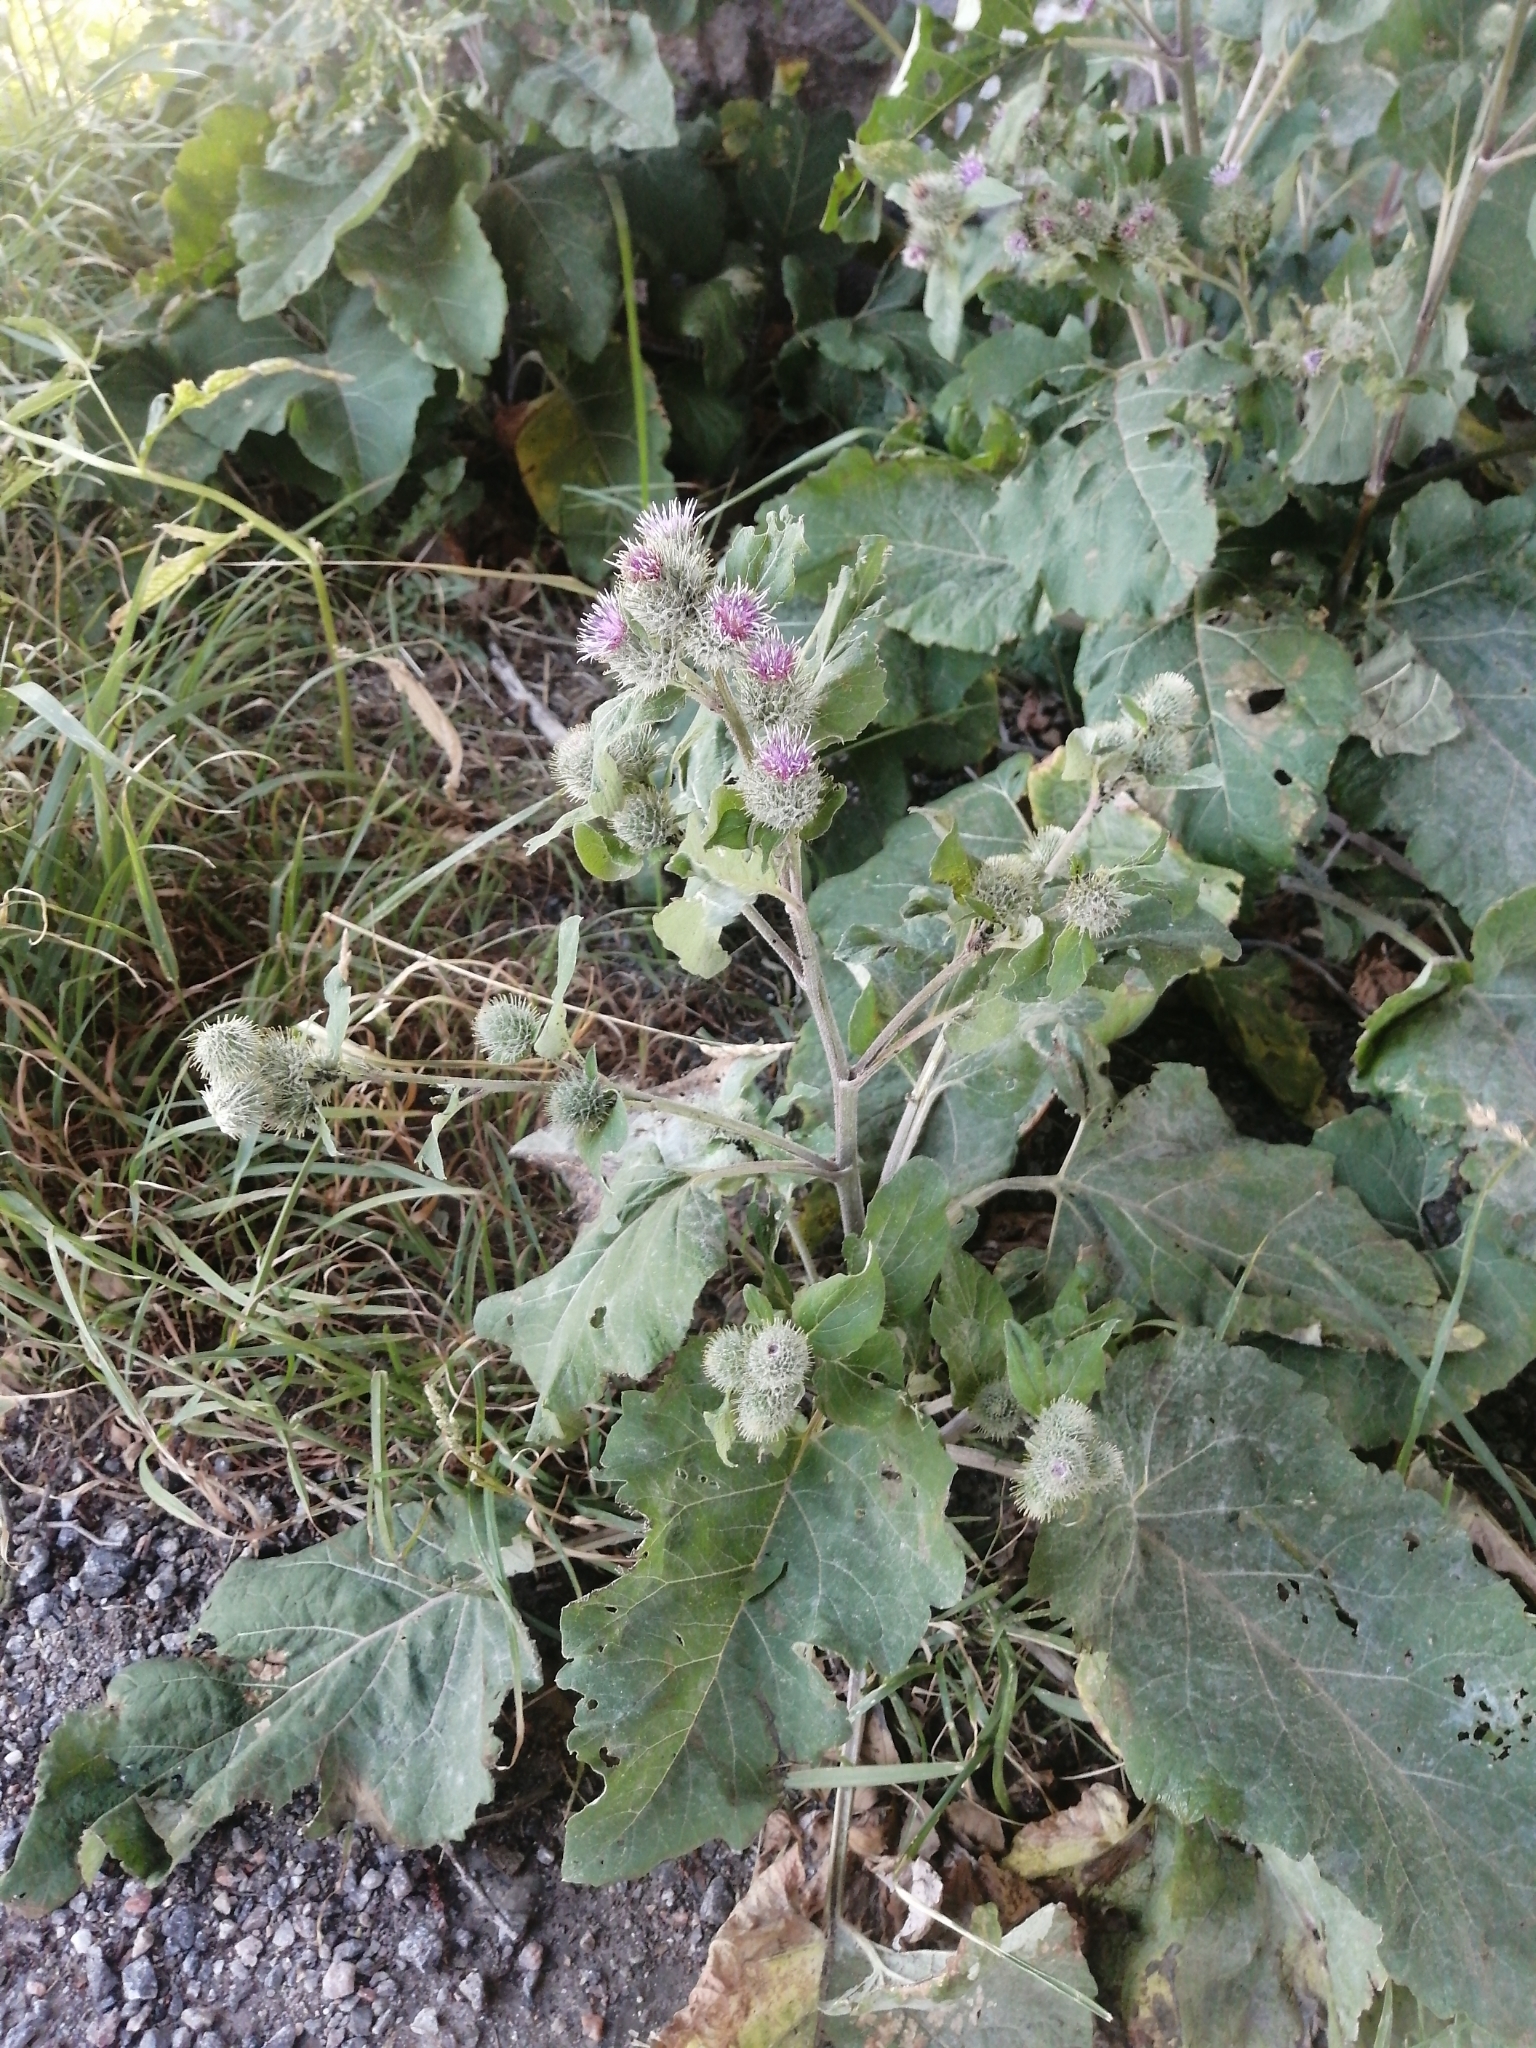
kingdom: Plantae
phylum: Tracheophyta
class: Magnoliopsida
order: Asterales
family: Asteraceae
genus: Arctium
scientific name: Arctium tomentosum
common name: Woolly burdock
